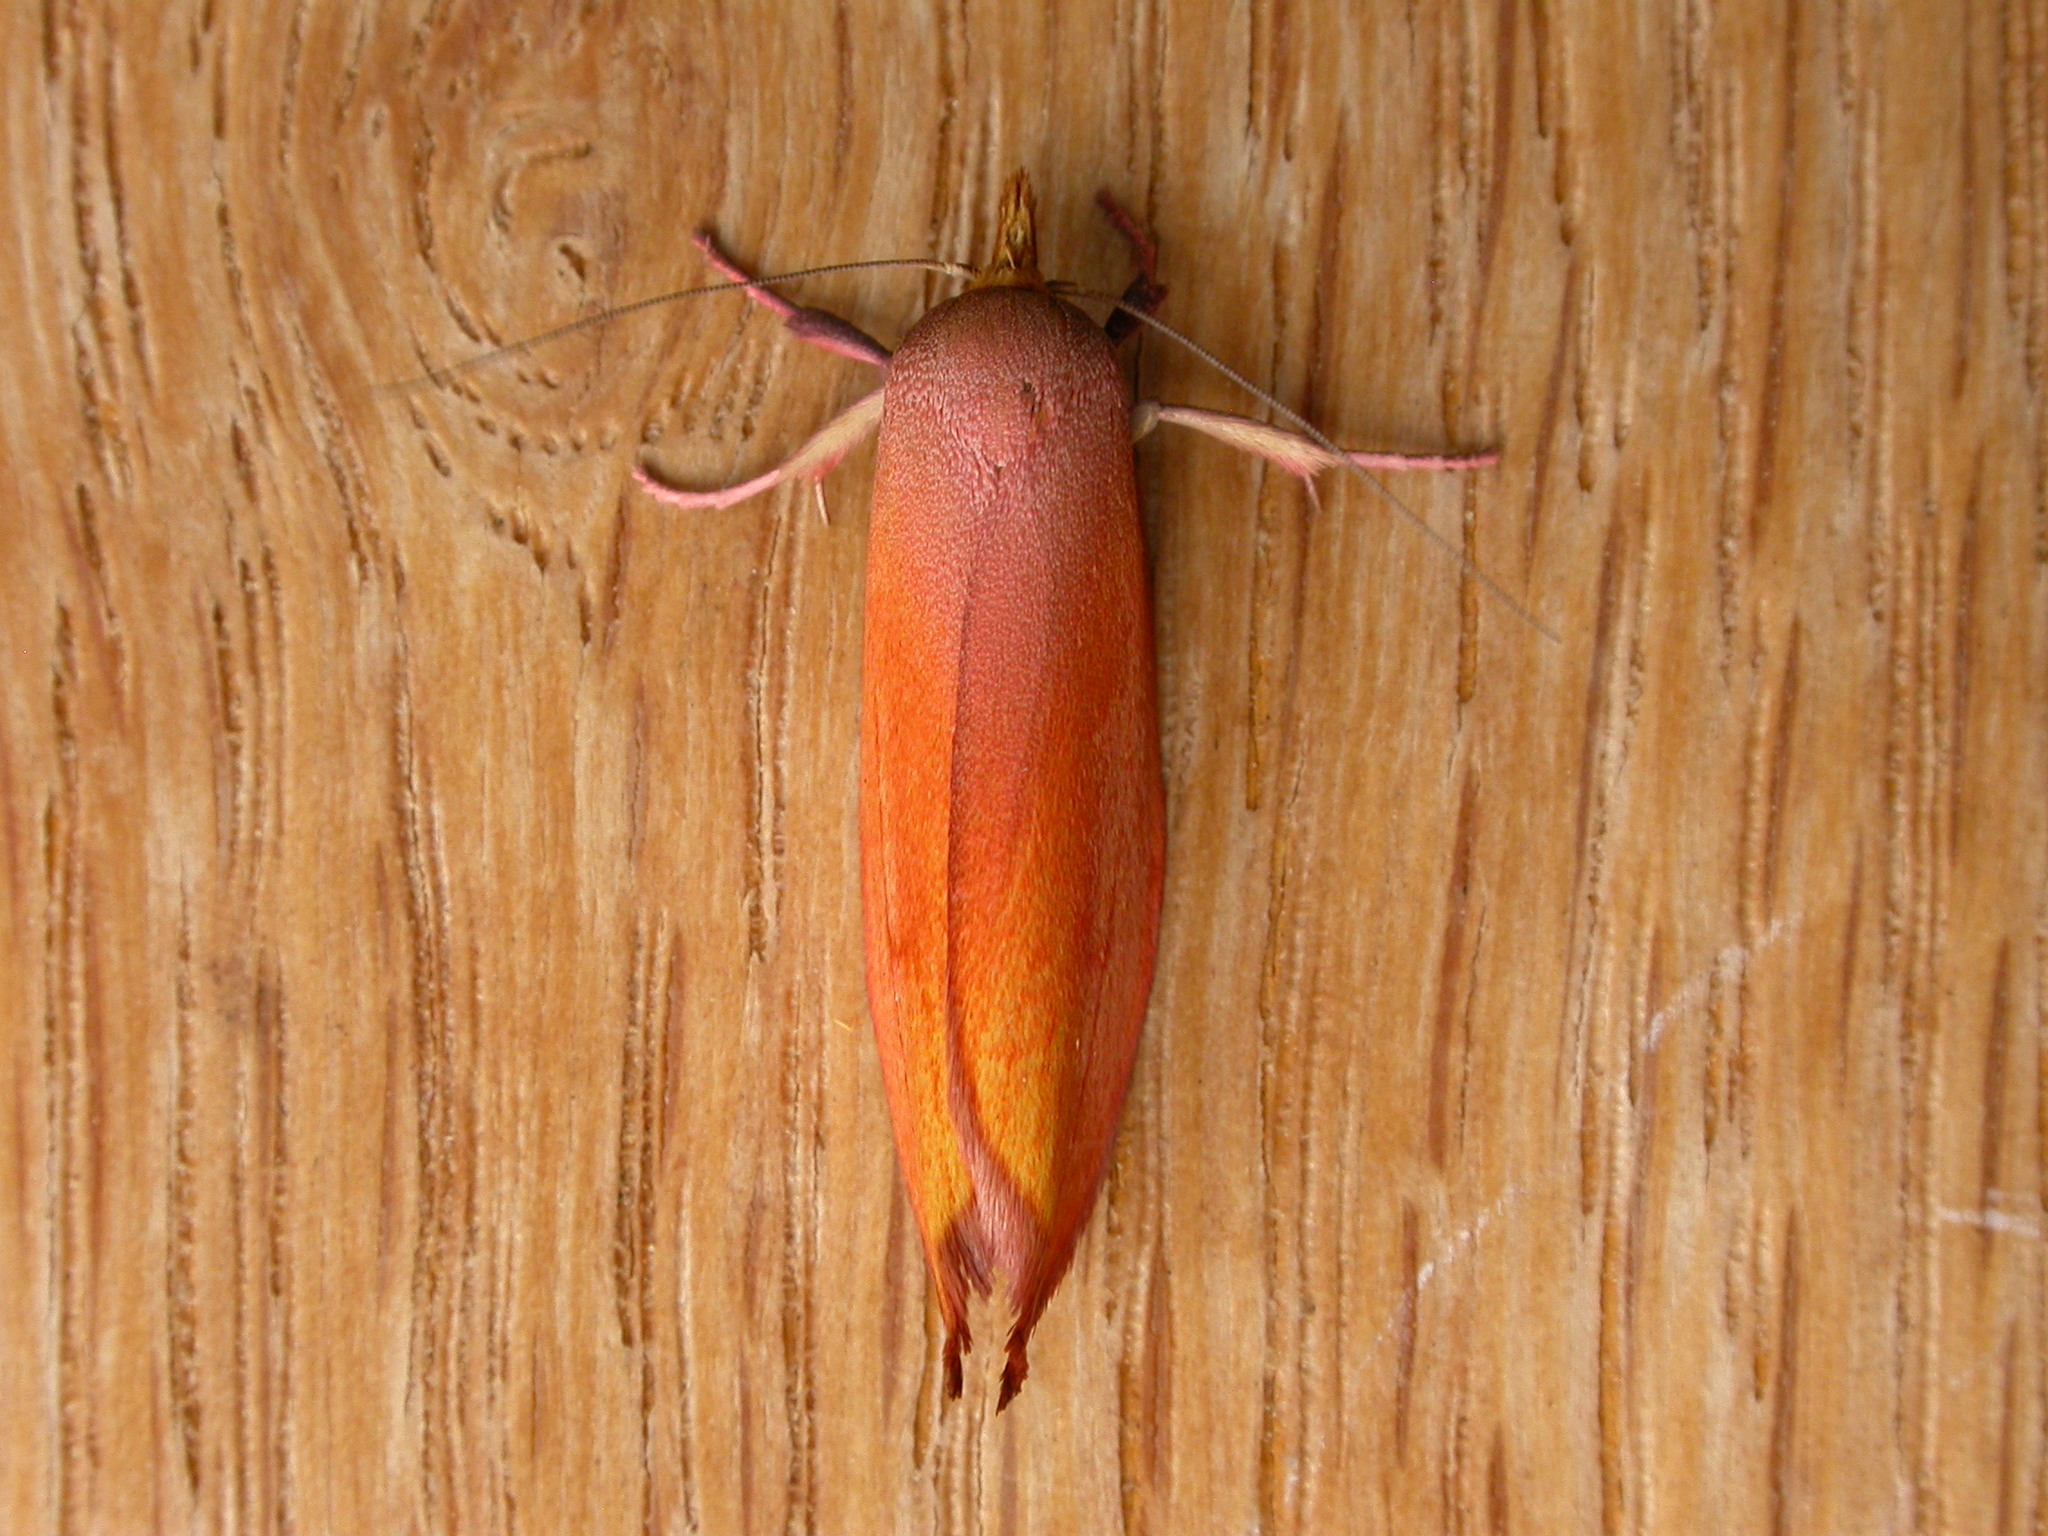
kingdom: Animalia
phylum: Arthropoda
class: Insecta
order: Lepidoptera
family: Oecophoridae
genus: Wingia
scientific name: Wingia aurata
